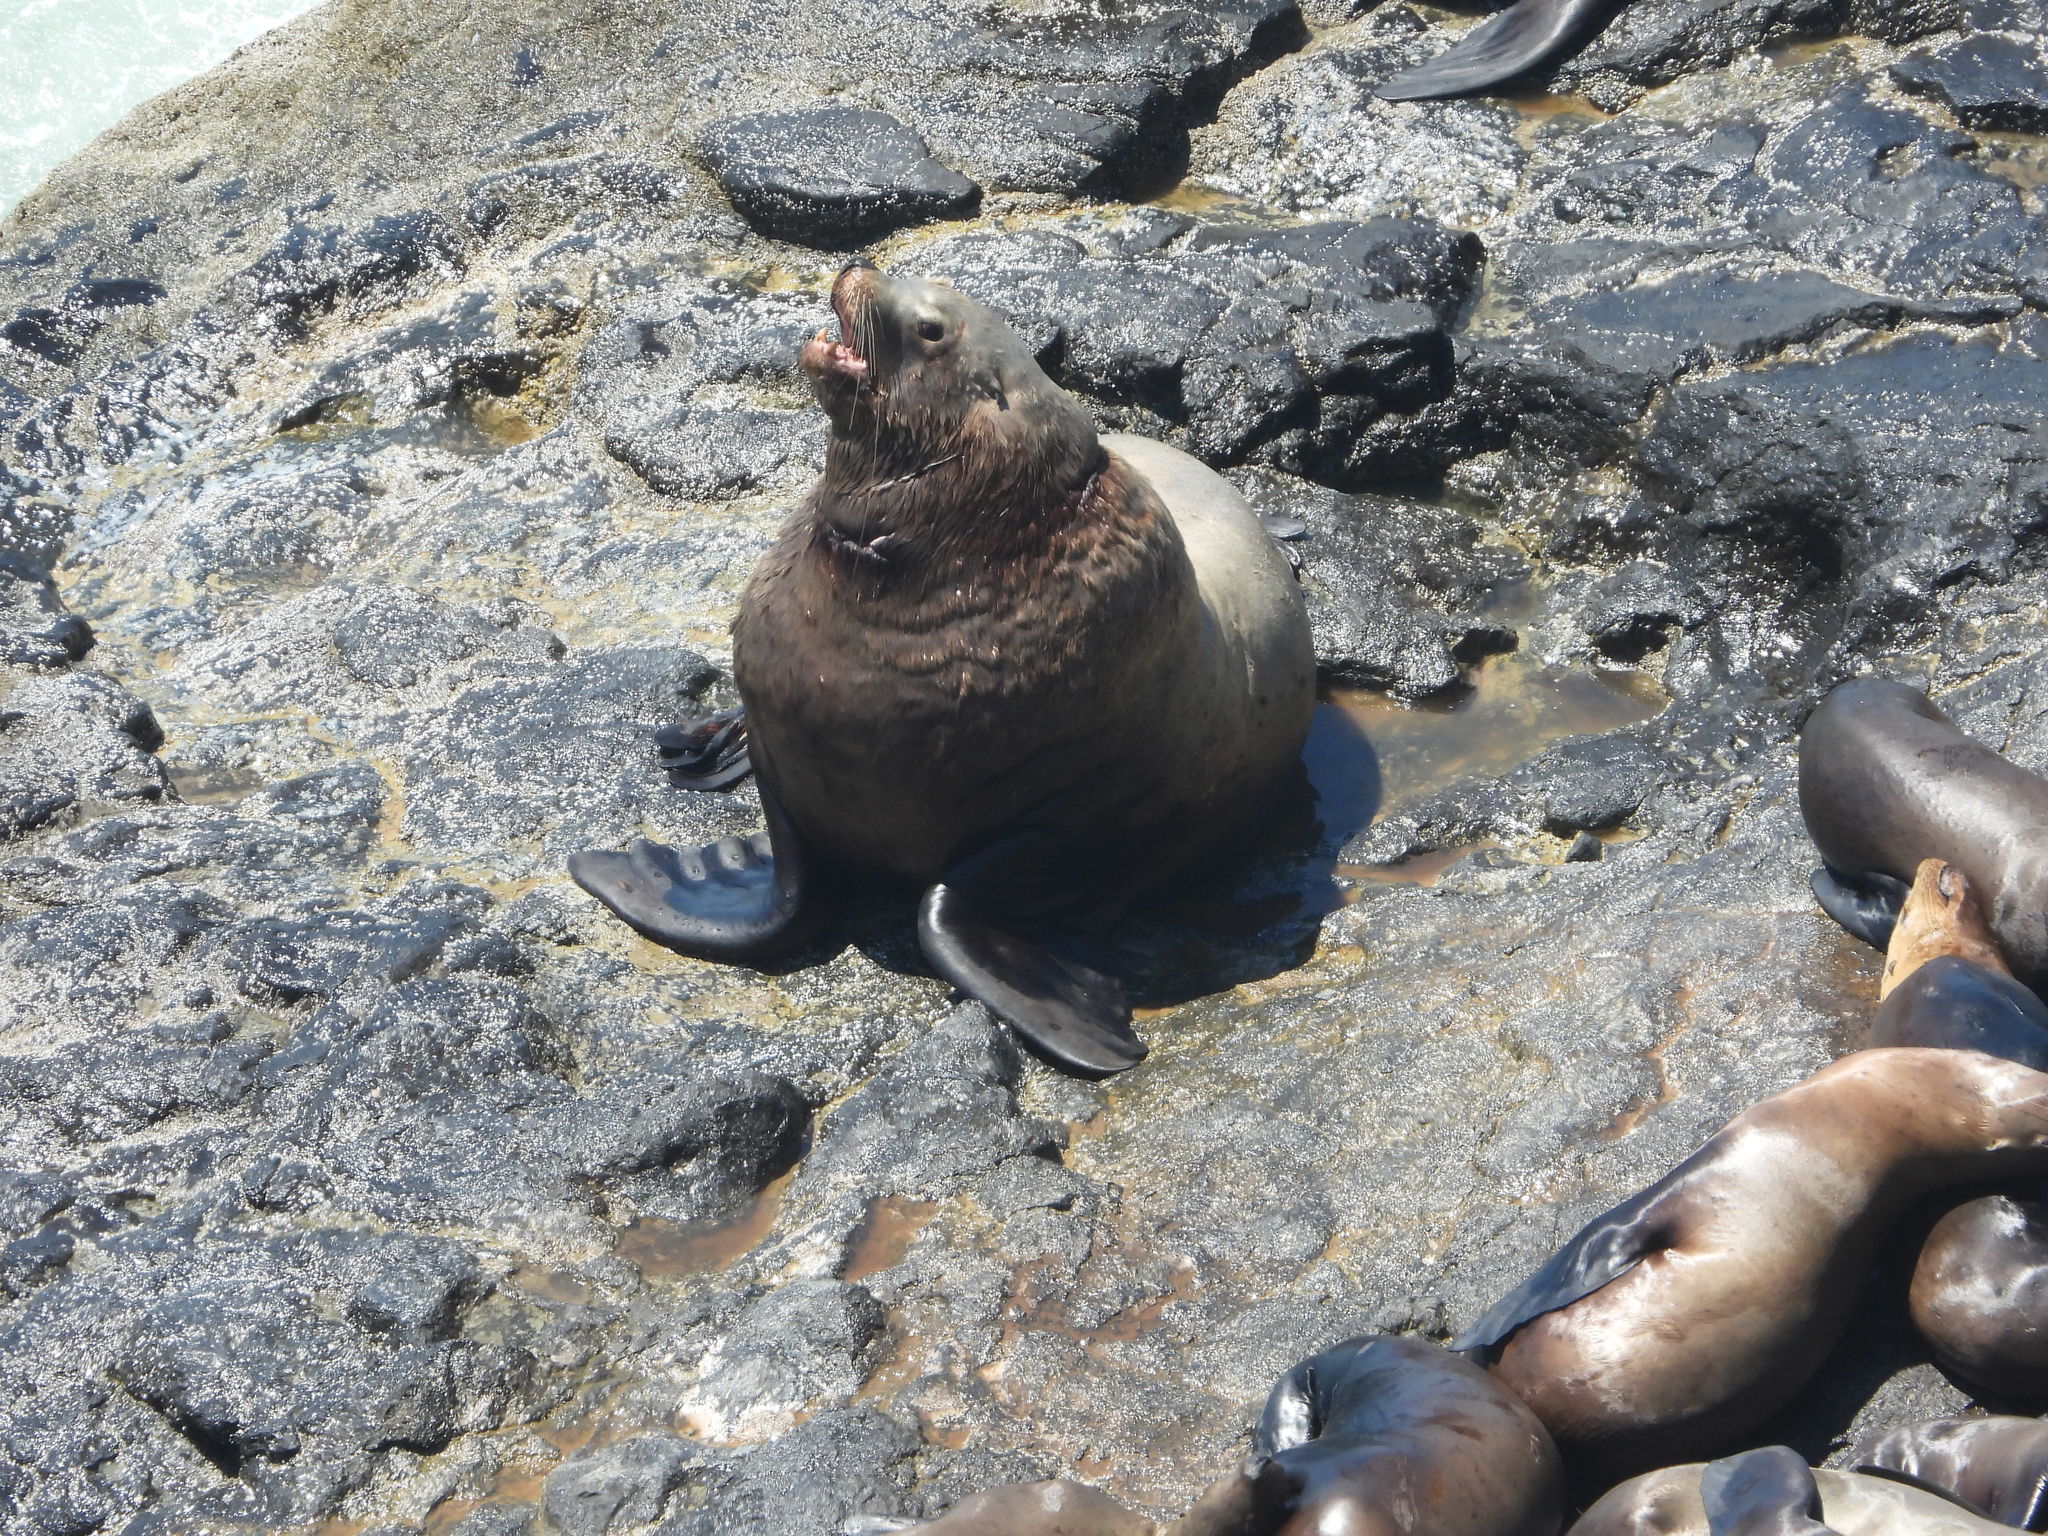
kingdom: Animalia
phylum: Chordata
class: Mammalia
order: Carnivora
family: Otariidae
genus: Eumetopias
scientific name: Eumetopias jubatus
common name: Steller sea lion
